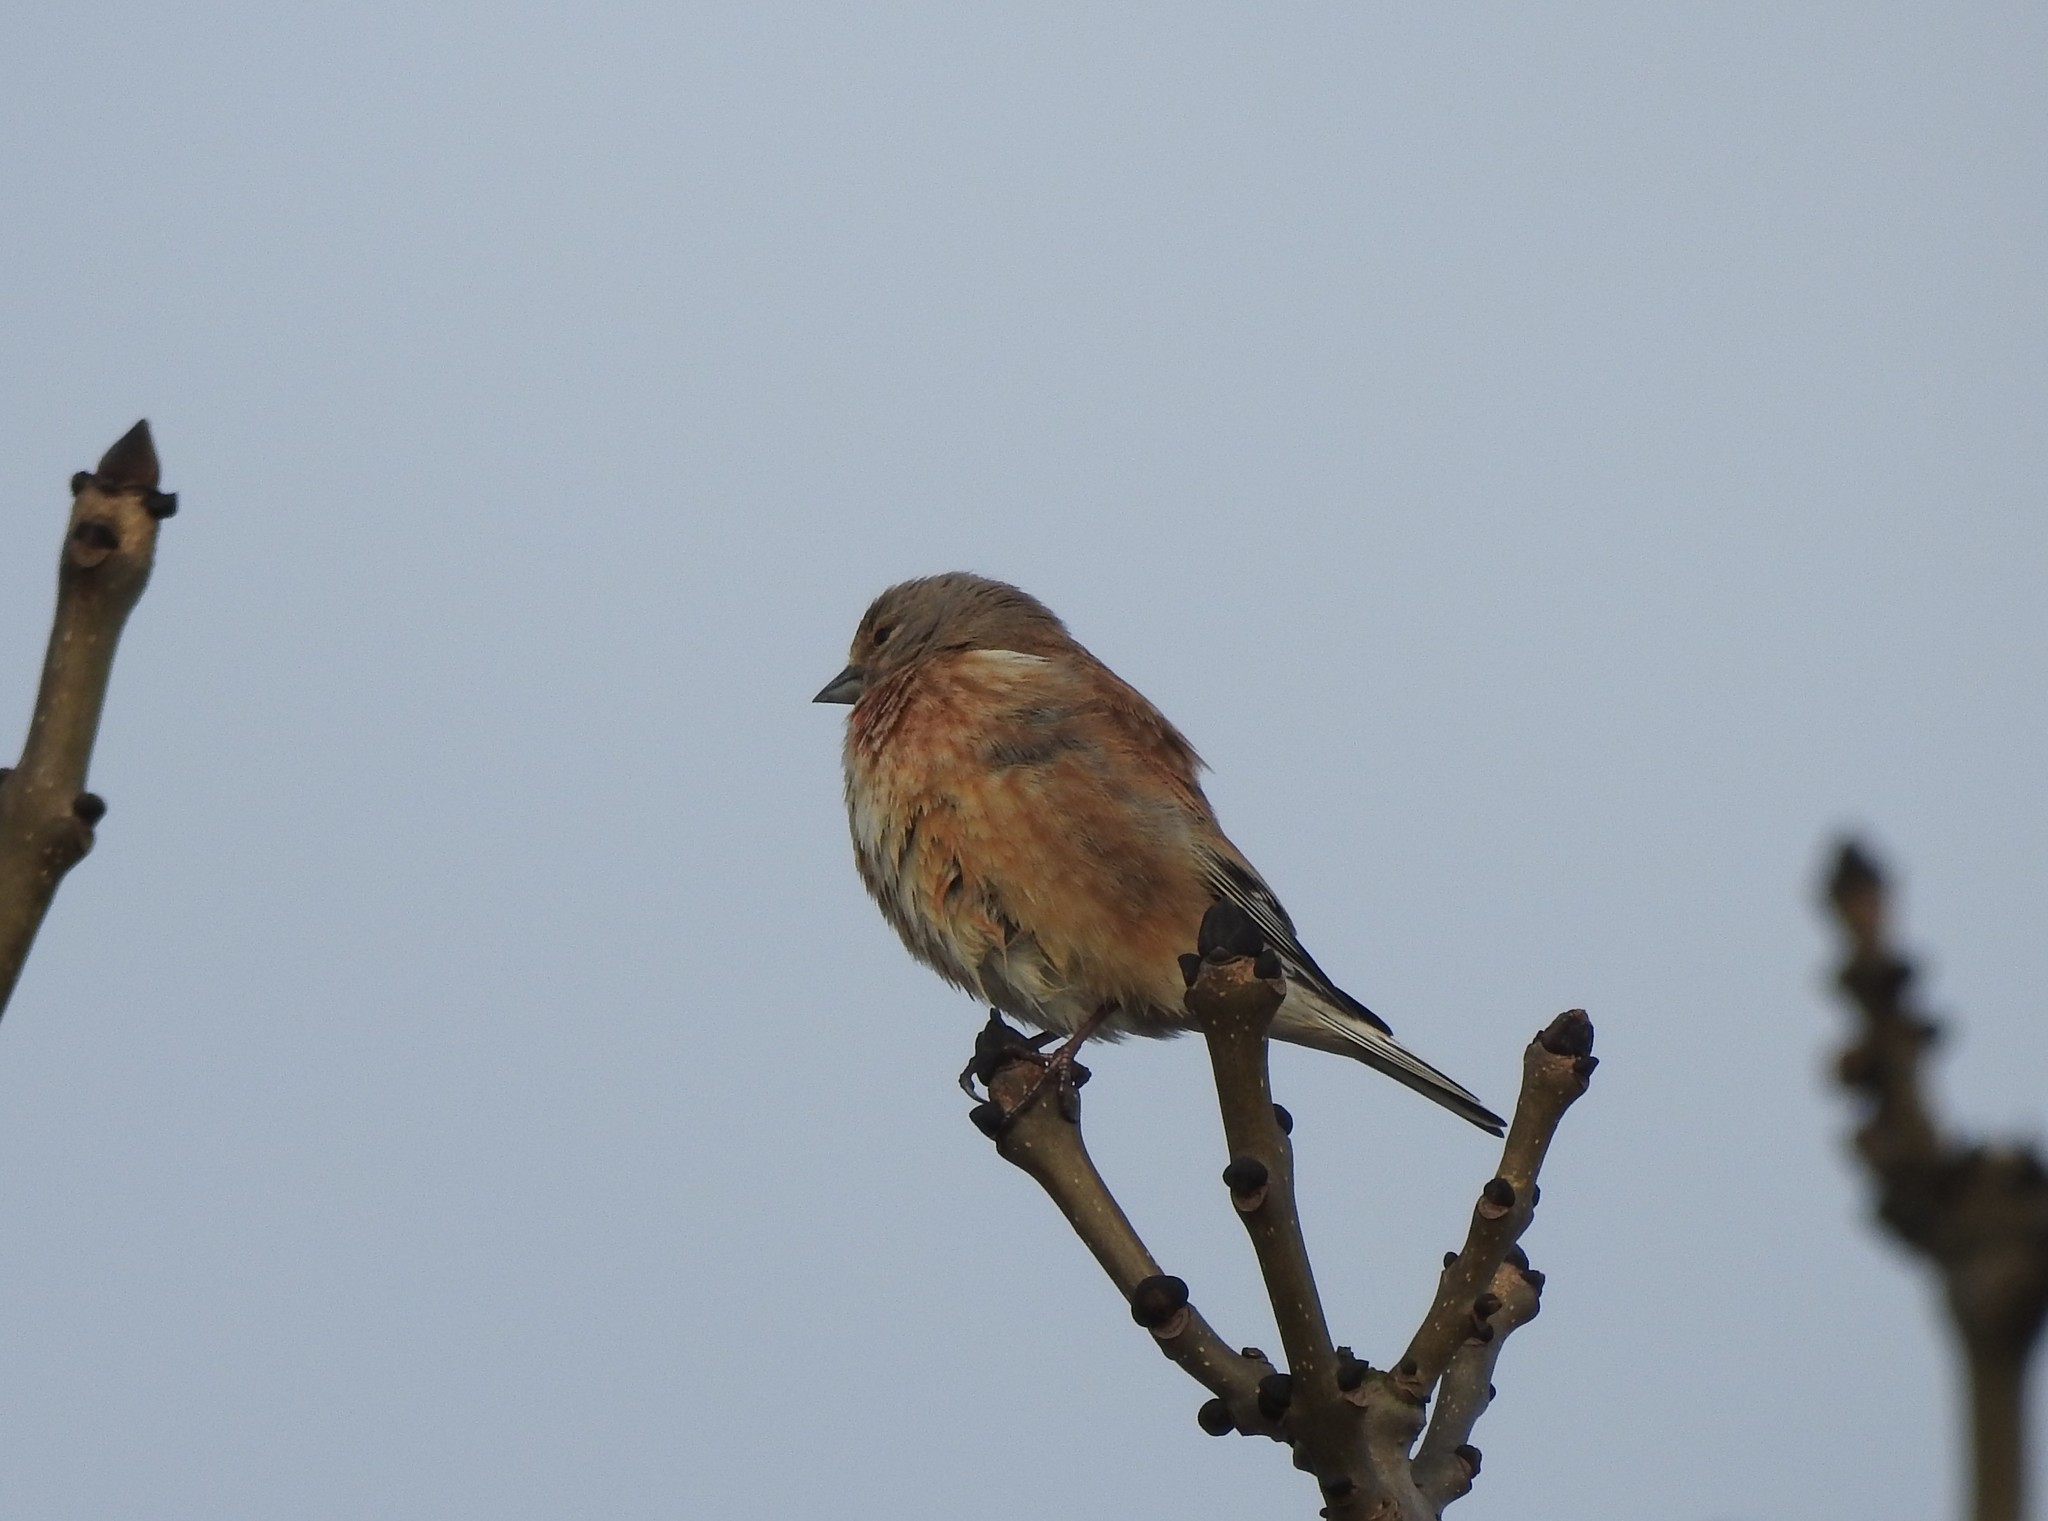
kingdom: Animalia
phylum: Chordata
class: Aves
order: Passeriformes
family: Fringillidae
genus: Linaria
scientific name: Linaria cannabina
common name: Common linnet
